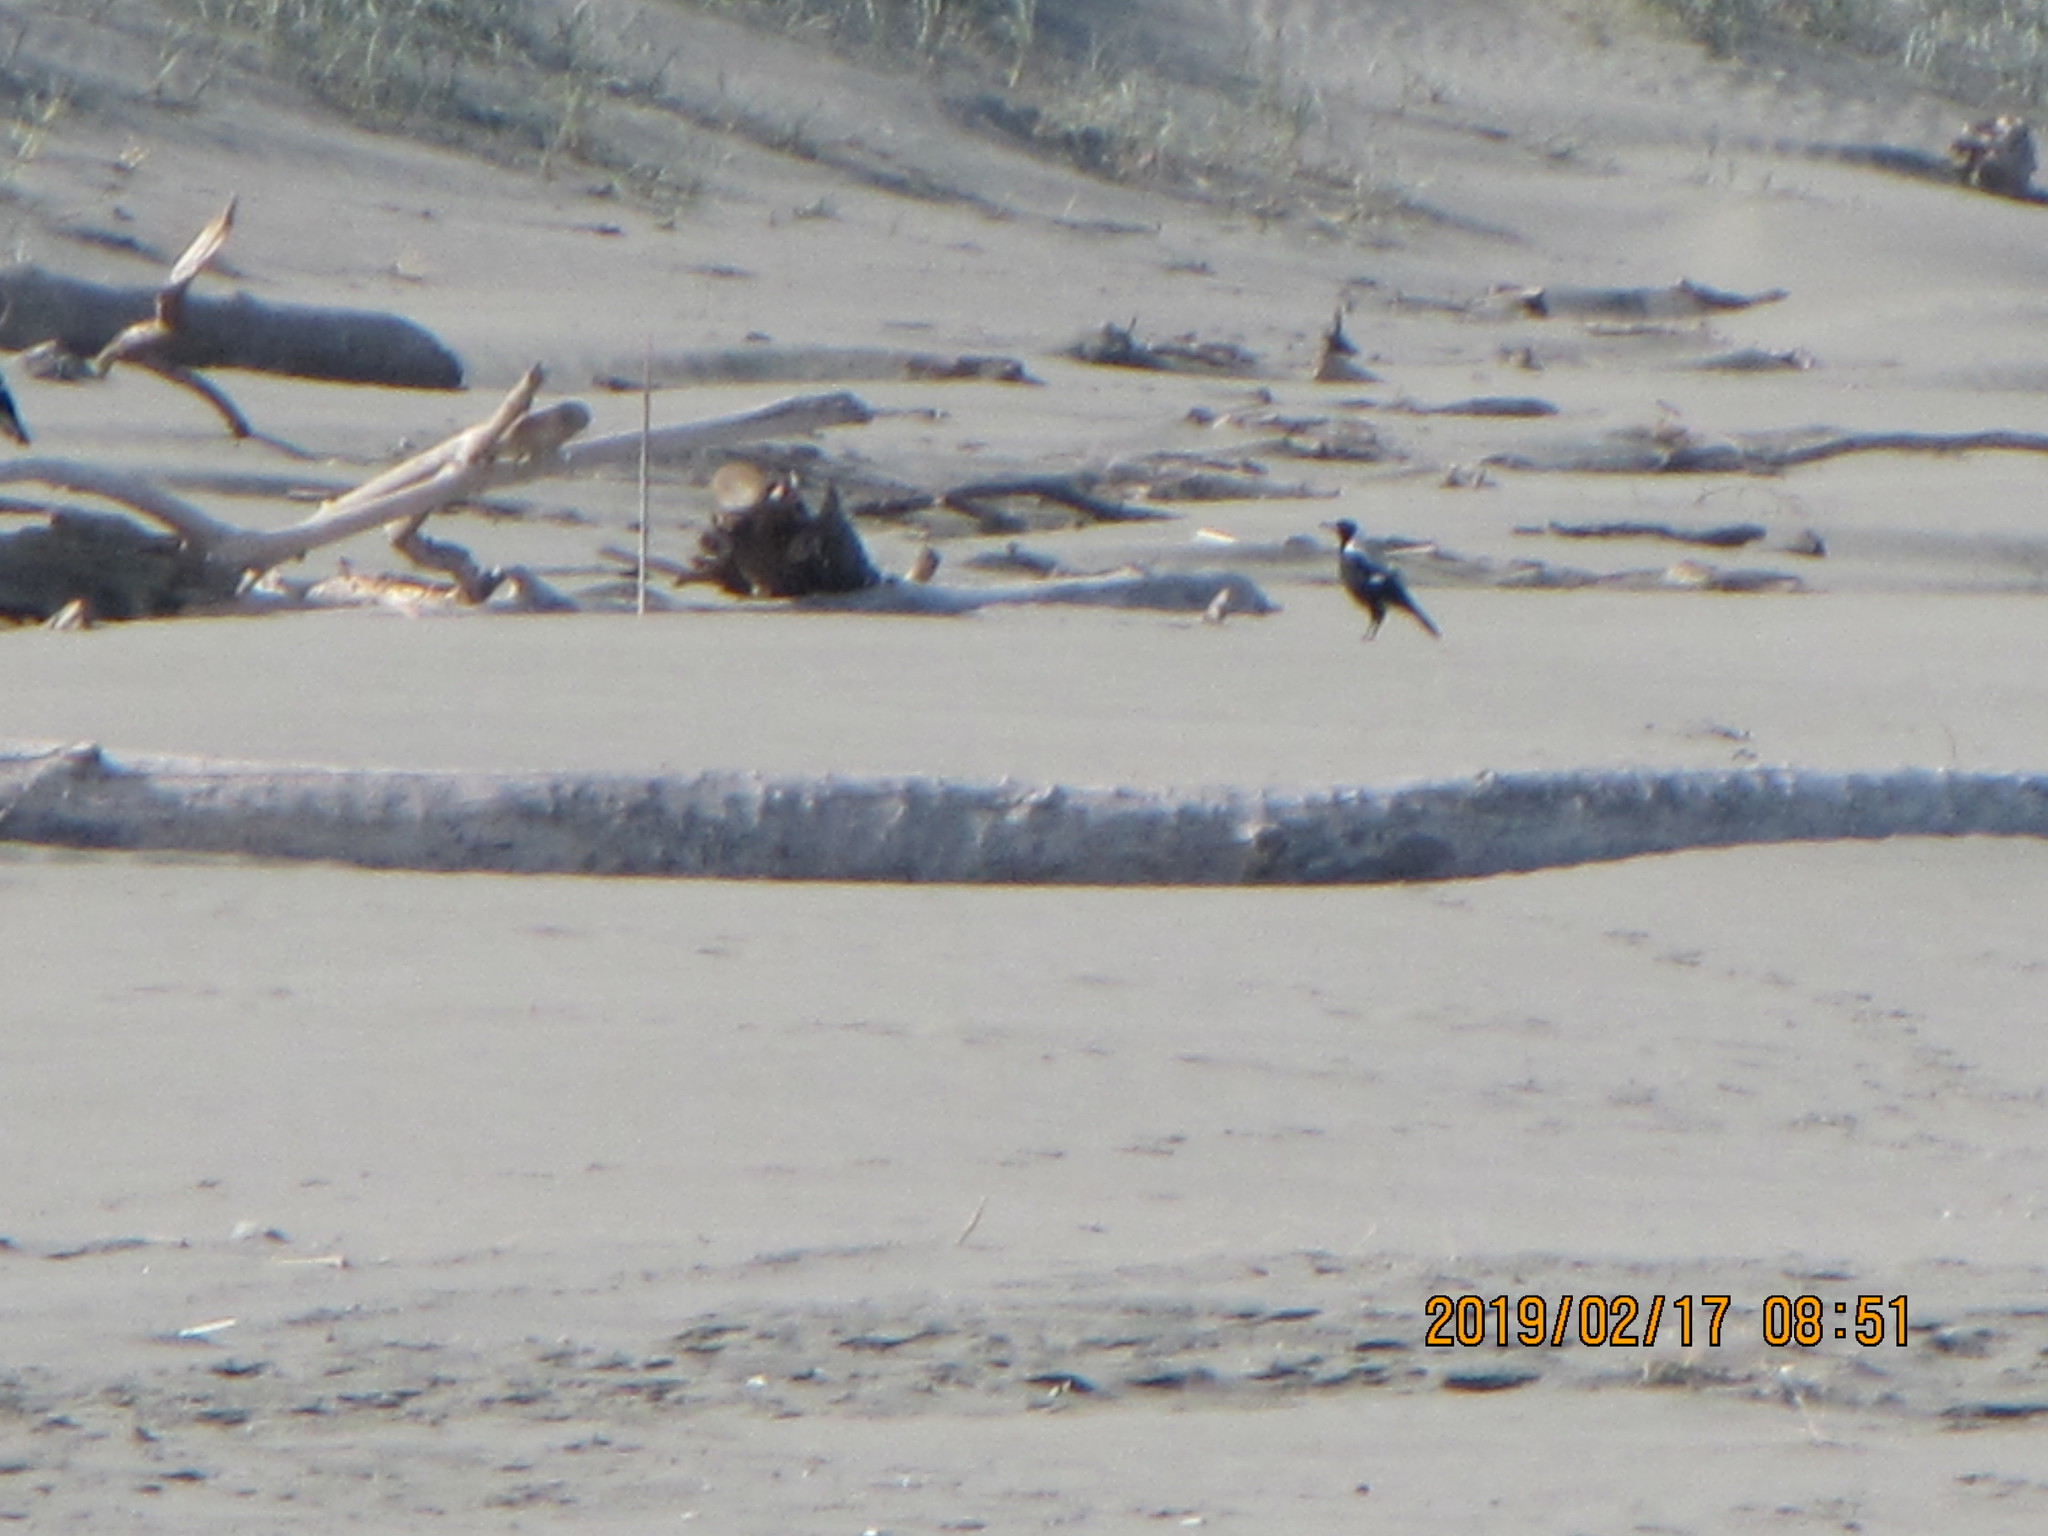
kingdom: Animalia
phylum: Chordata
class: Aves
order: Passeriformes
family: Cracticidae
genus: Gymnorhina
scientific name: Gymnorhina tibicen
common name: Australian magpie
